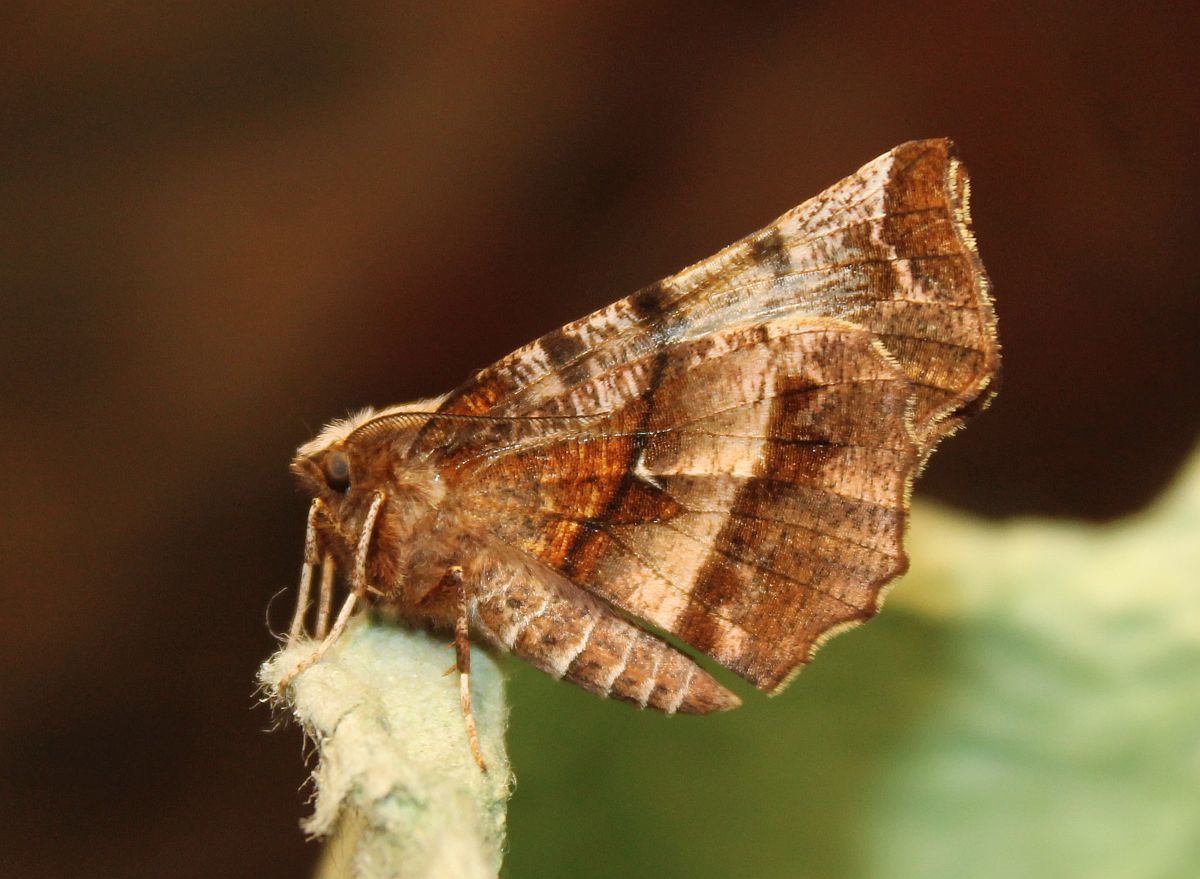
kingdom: Animalia
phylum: Arthropoda
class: Insecta
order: Lepidoptera
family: Geometridae
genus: Selenia
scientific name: Selenia dentaria
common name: Early thorn
